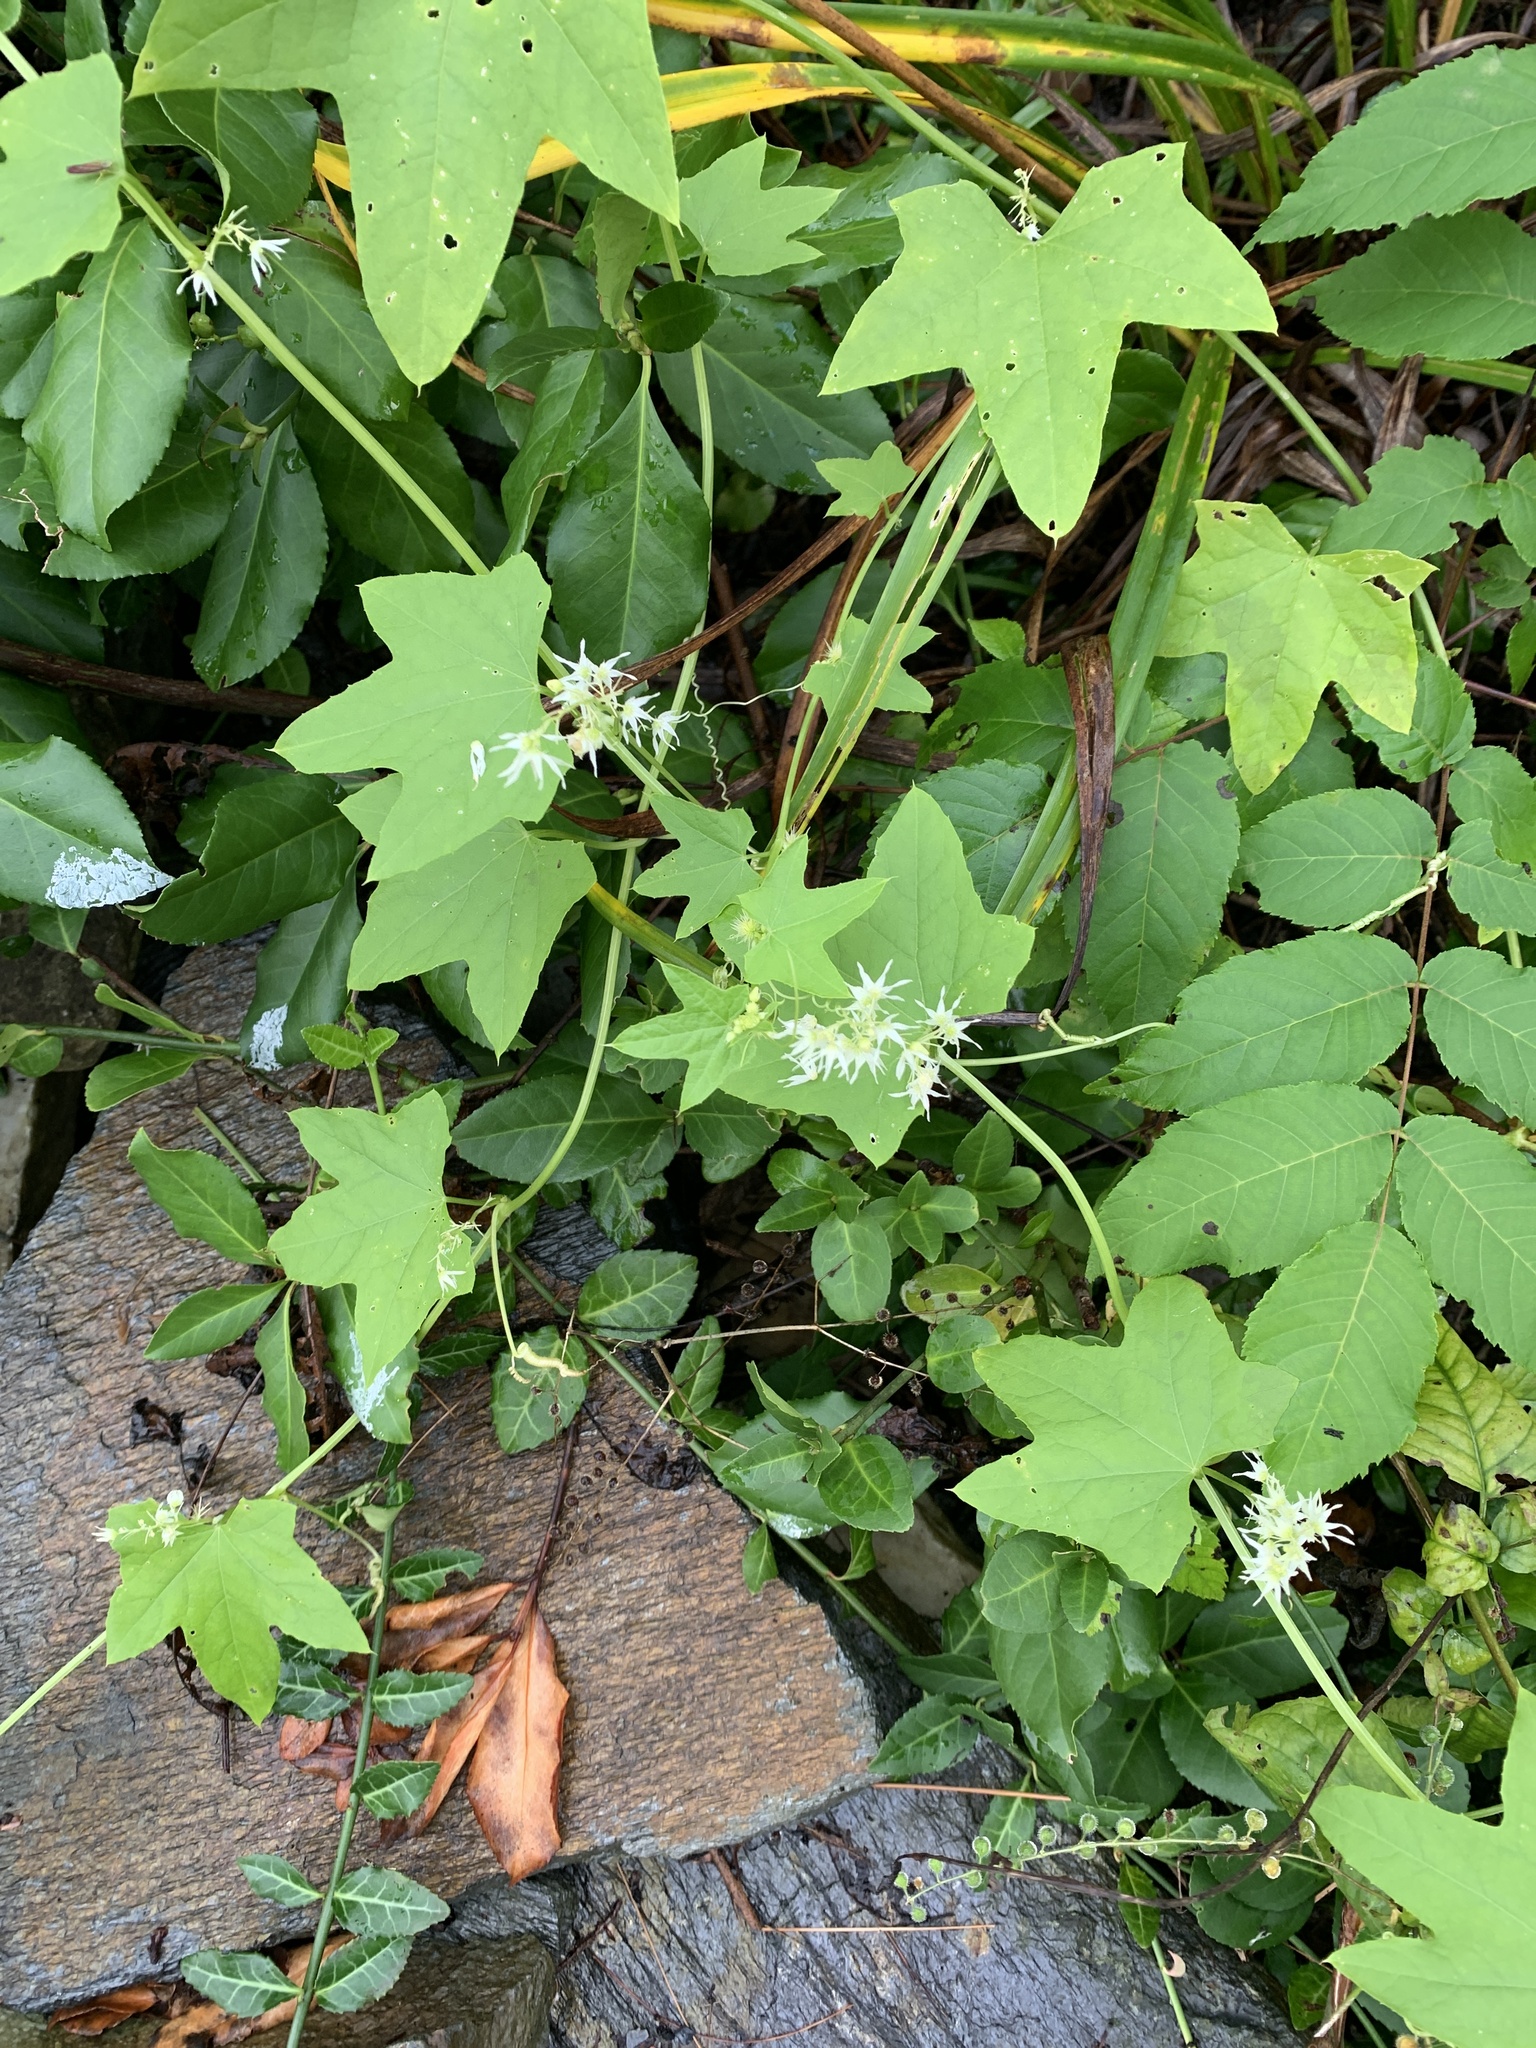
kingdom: Plantae
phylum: Tracheophyta
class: Magnoliopsida
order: Cucurbitales
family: Cucurbitaceae
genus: Echinocystis
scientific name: Echinocystis lobata
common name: Wild cucumber
